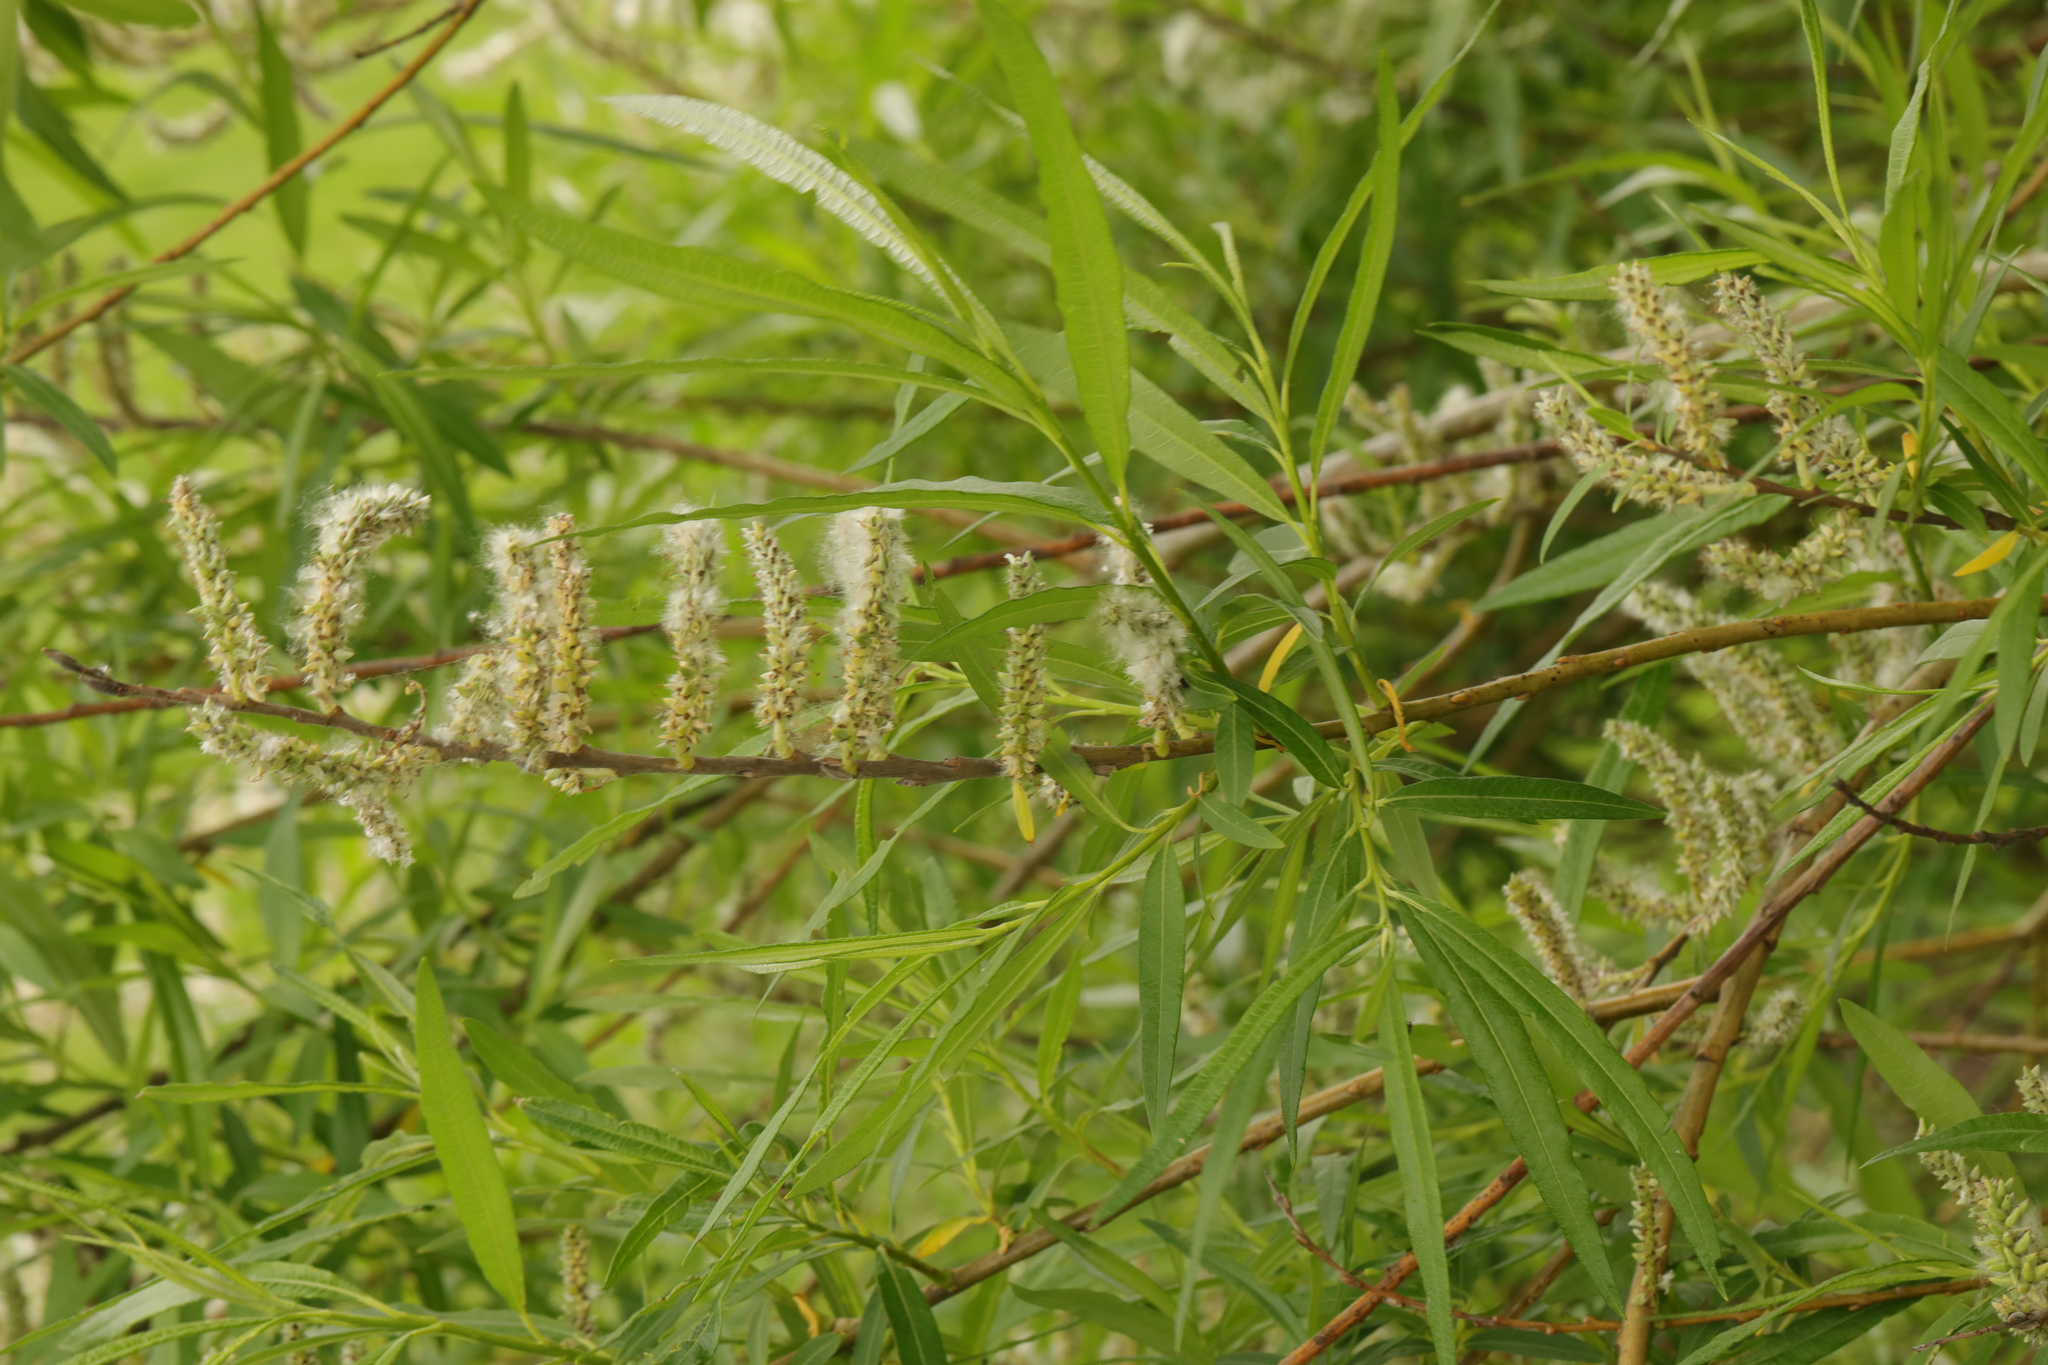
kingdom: Plantae
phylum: Tracheophyta
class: Magnoliopsida
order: Malpighiales
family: Salicaceae
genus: Salix
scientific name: Salix viminalis
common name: Osier
